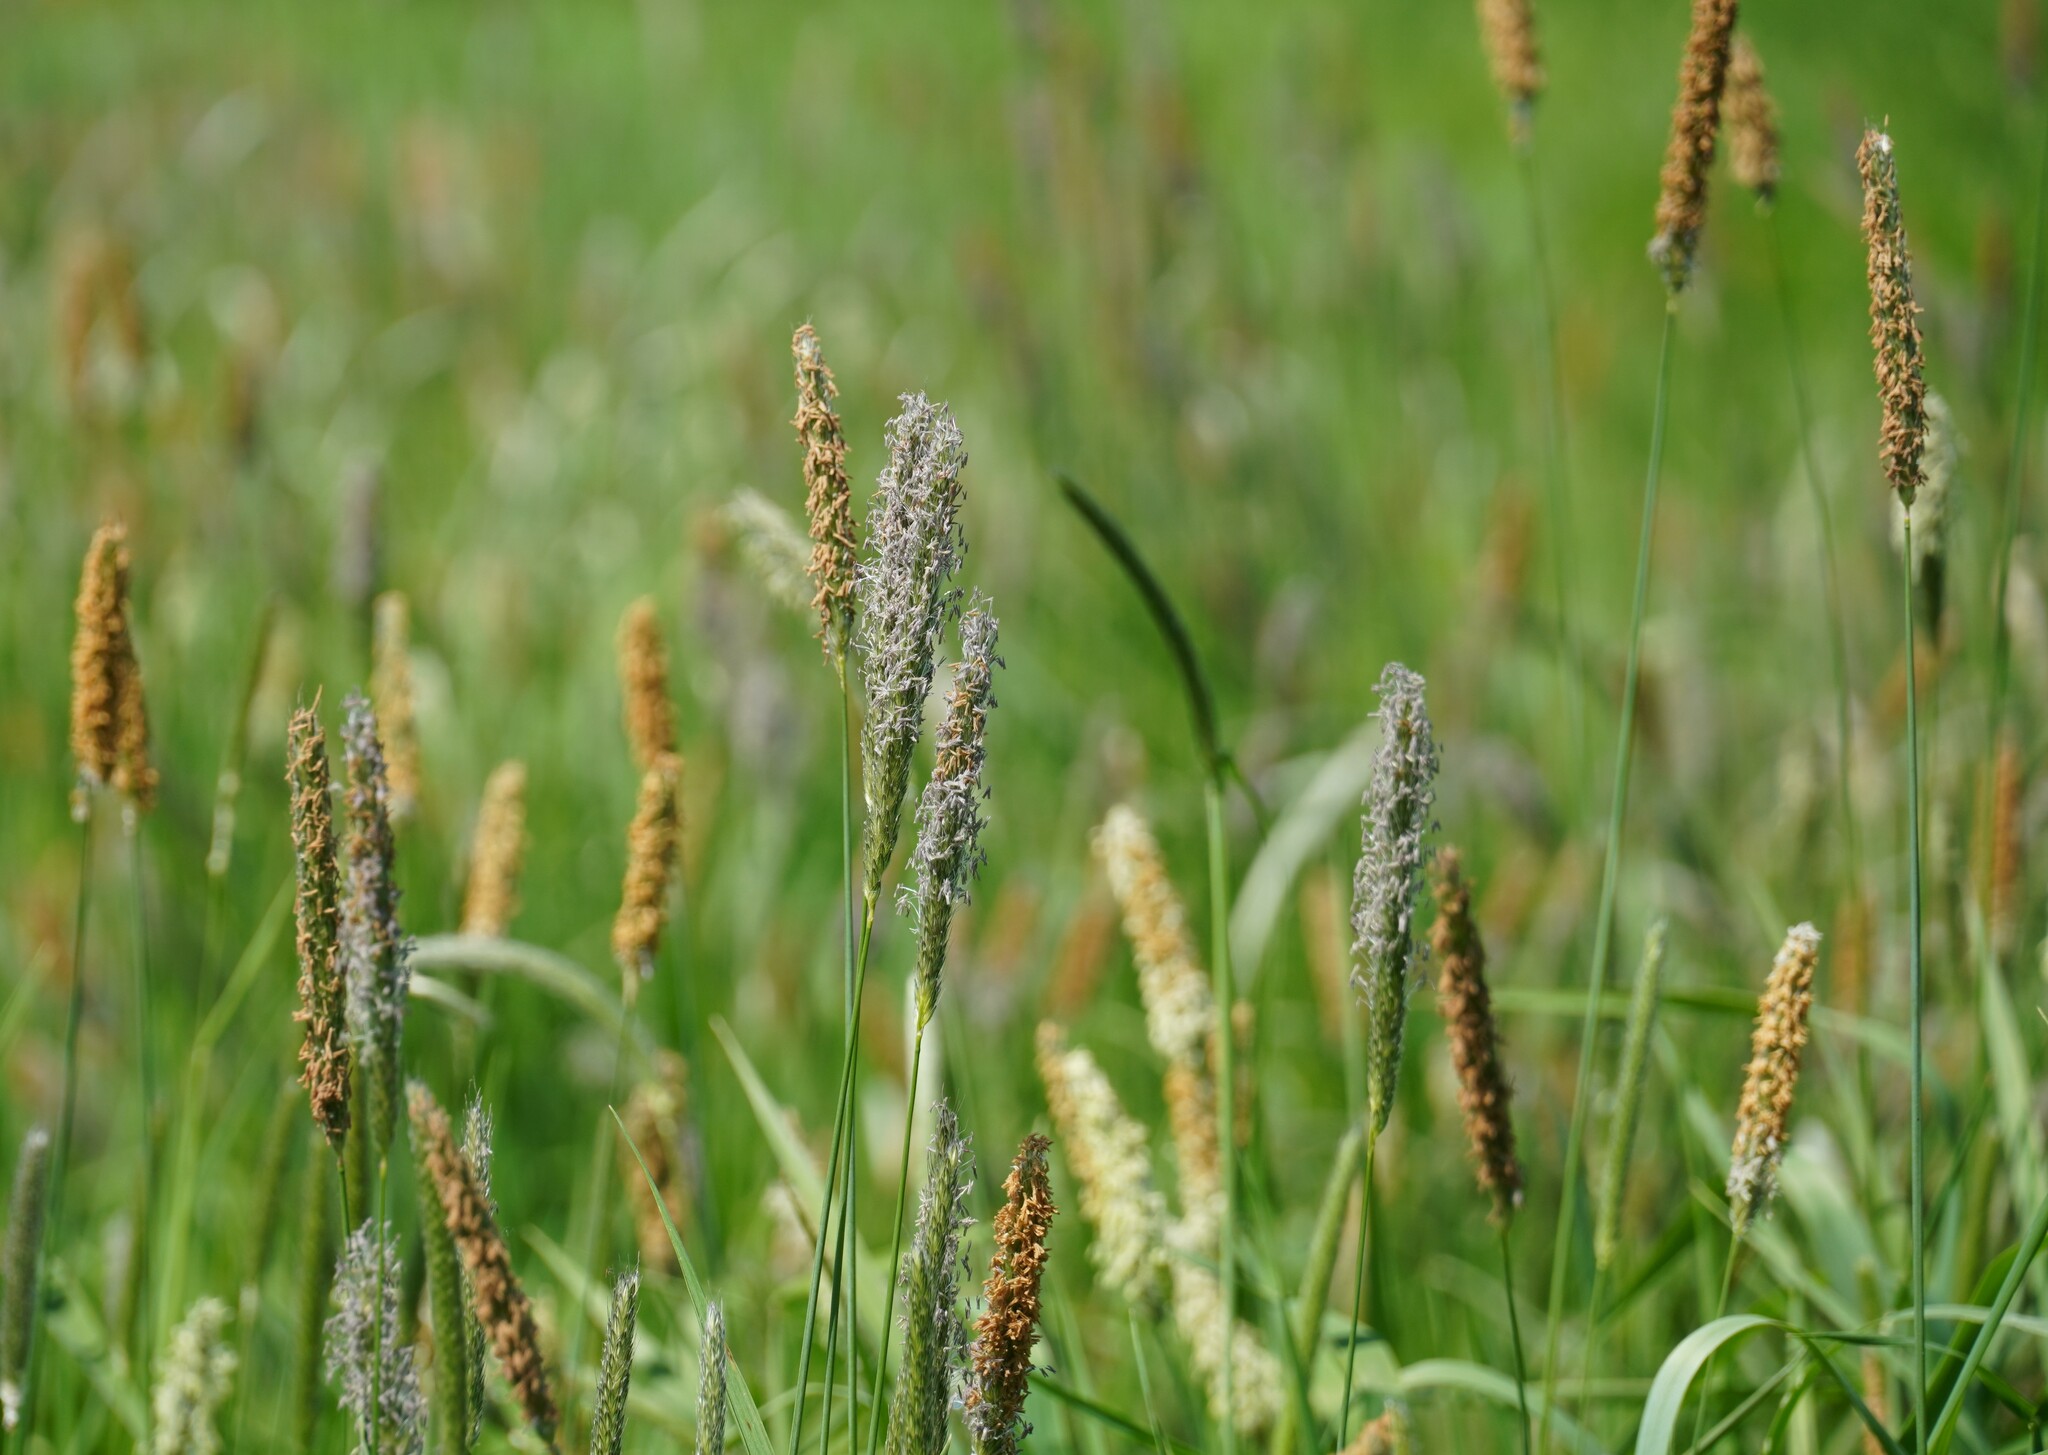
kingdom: Plantae
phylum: Tracheophyta
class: Liliopsida
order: Poales
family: Poaceae
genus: Alopecurus
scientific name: Alopecurus pratensis
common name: Meadow foxtail
